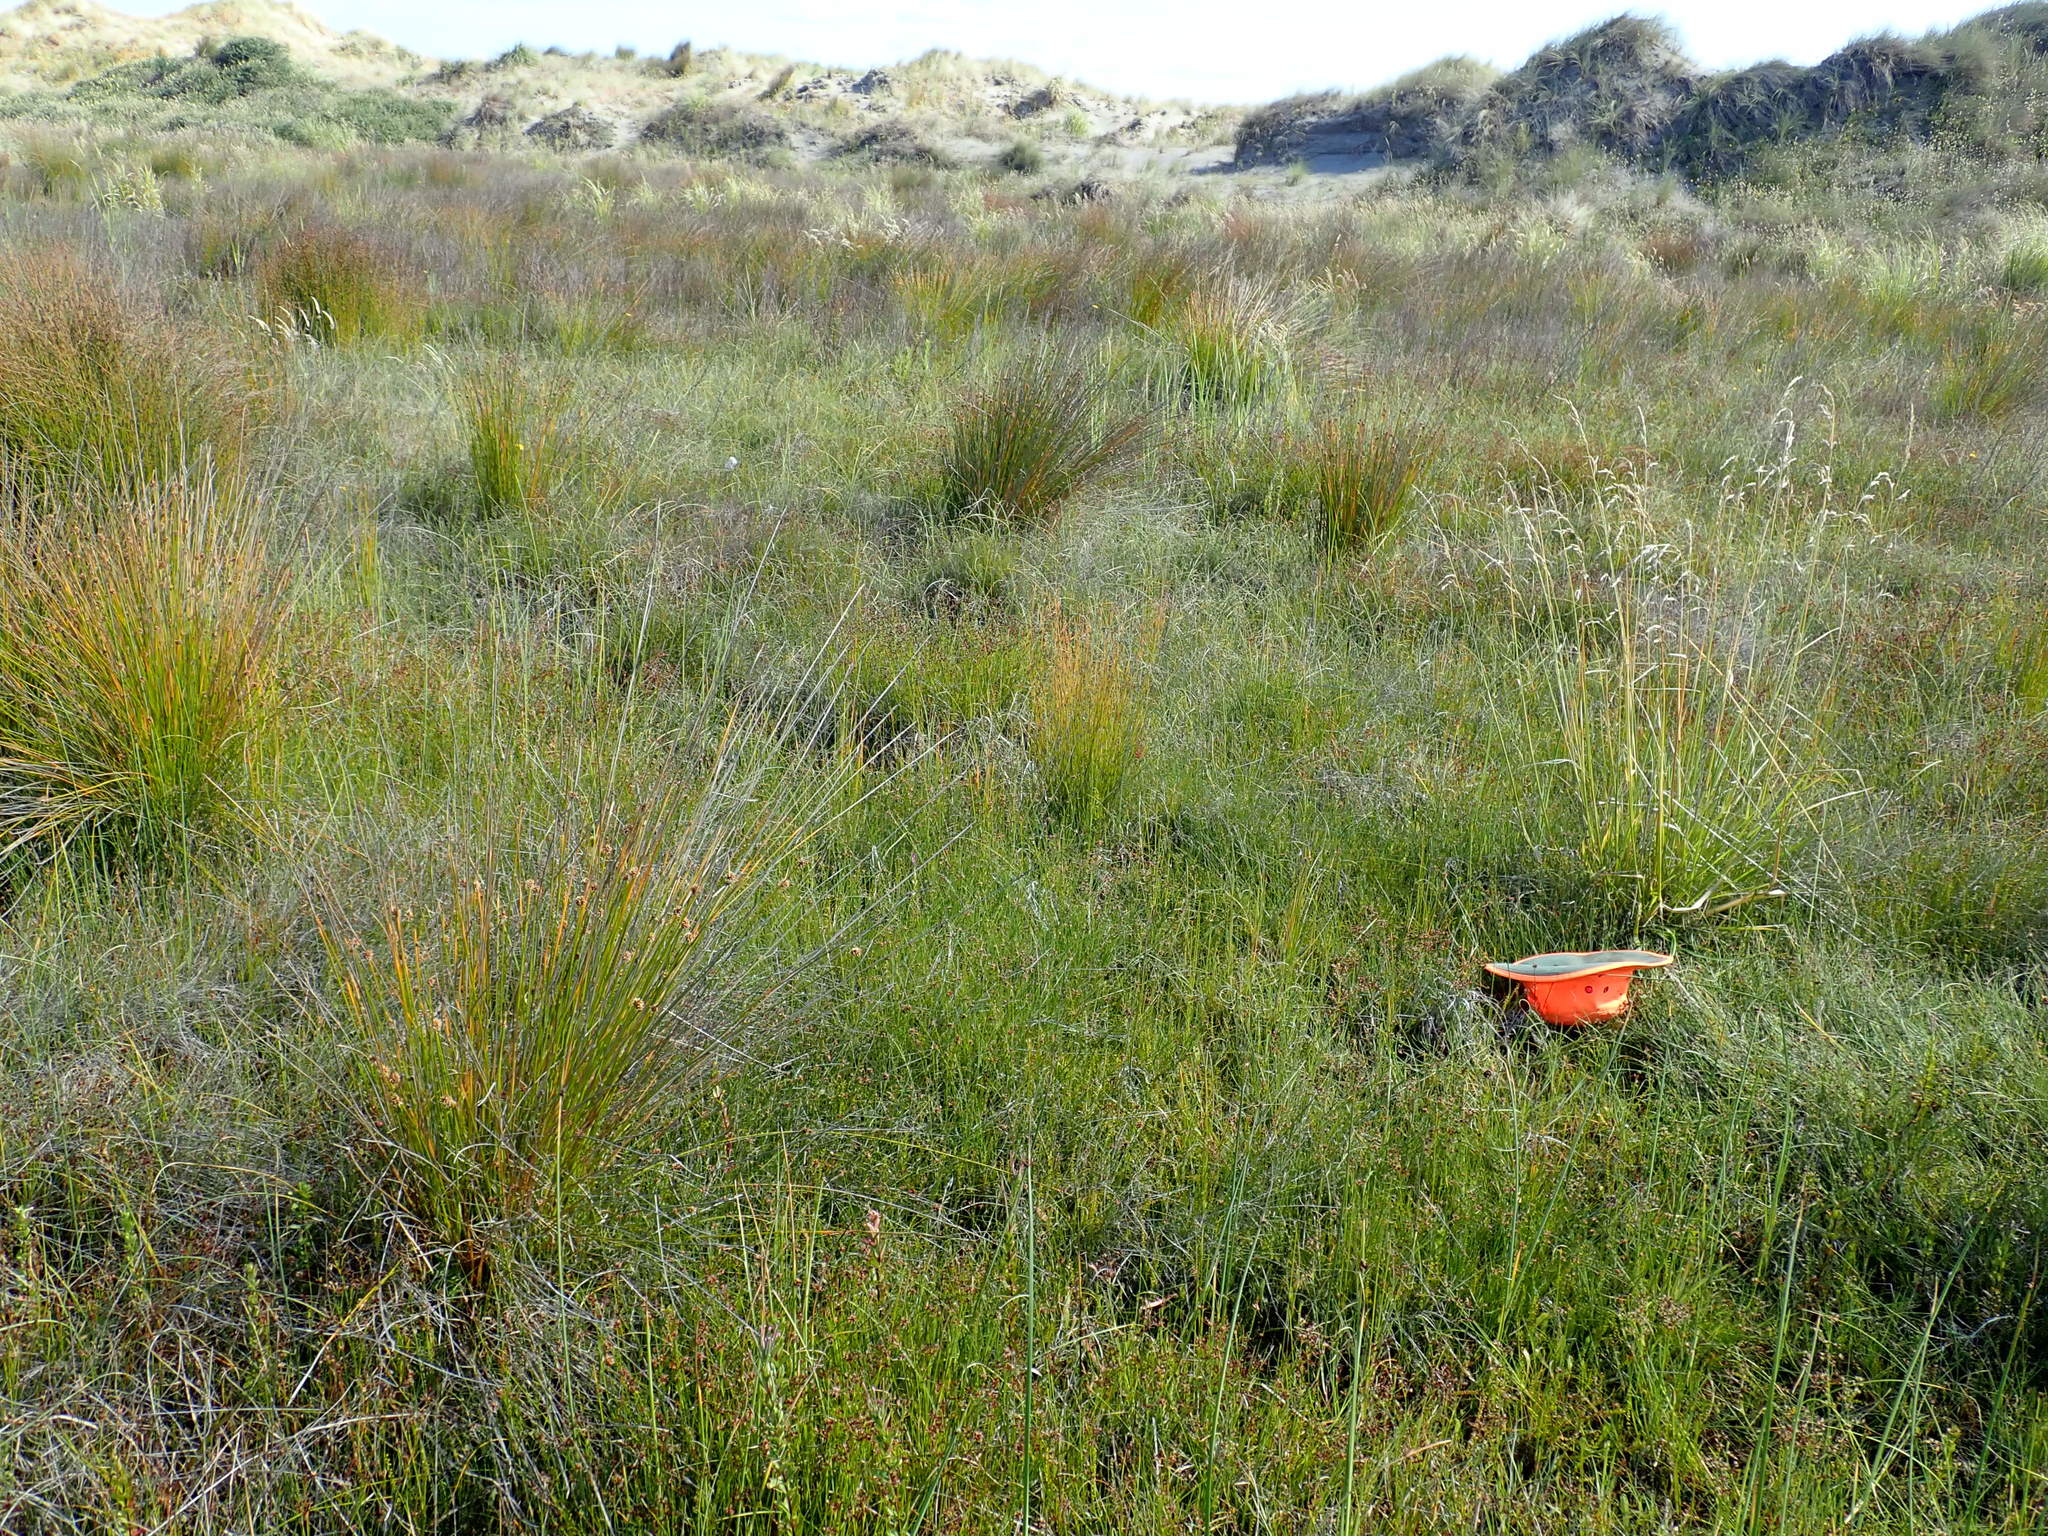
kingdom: Plantae
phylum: Tracheophyta
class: Liliopsida
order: Alismatales
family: Juncaginaceae
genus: Triglochin
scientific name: Triglochin striata
